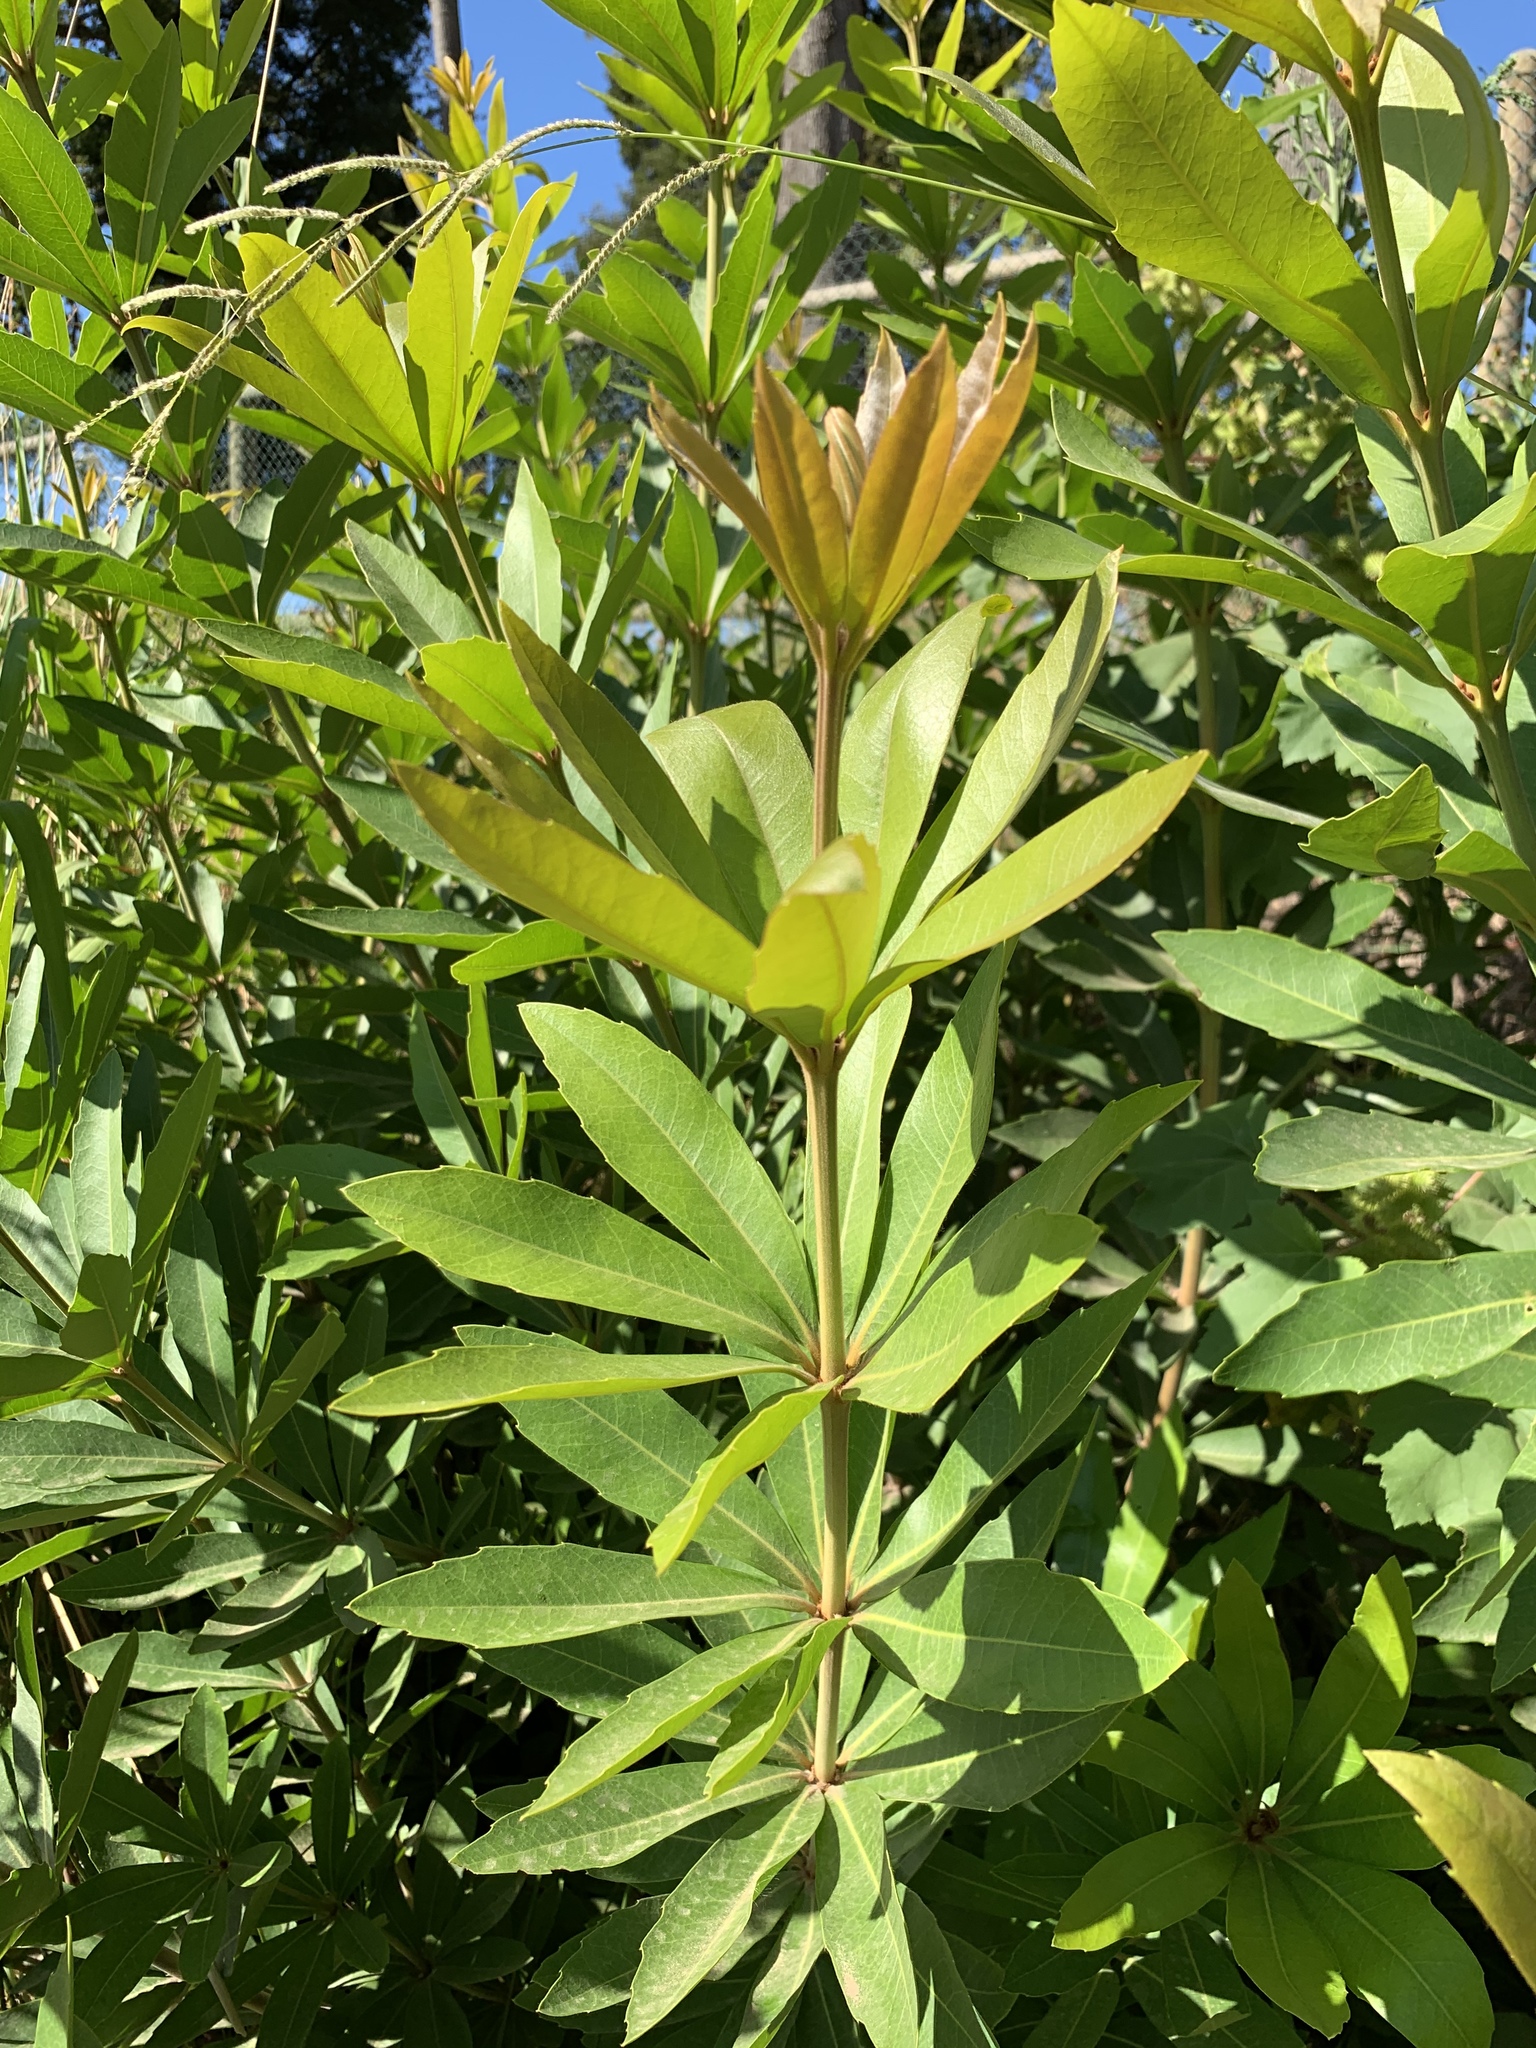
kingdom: Plantae
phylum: Tracheophyta
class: Magnoliopsida
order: Proteales
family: Proteaceae
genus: Brabejum
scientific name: Brabejum stellatifolium
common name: Wild almond
